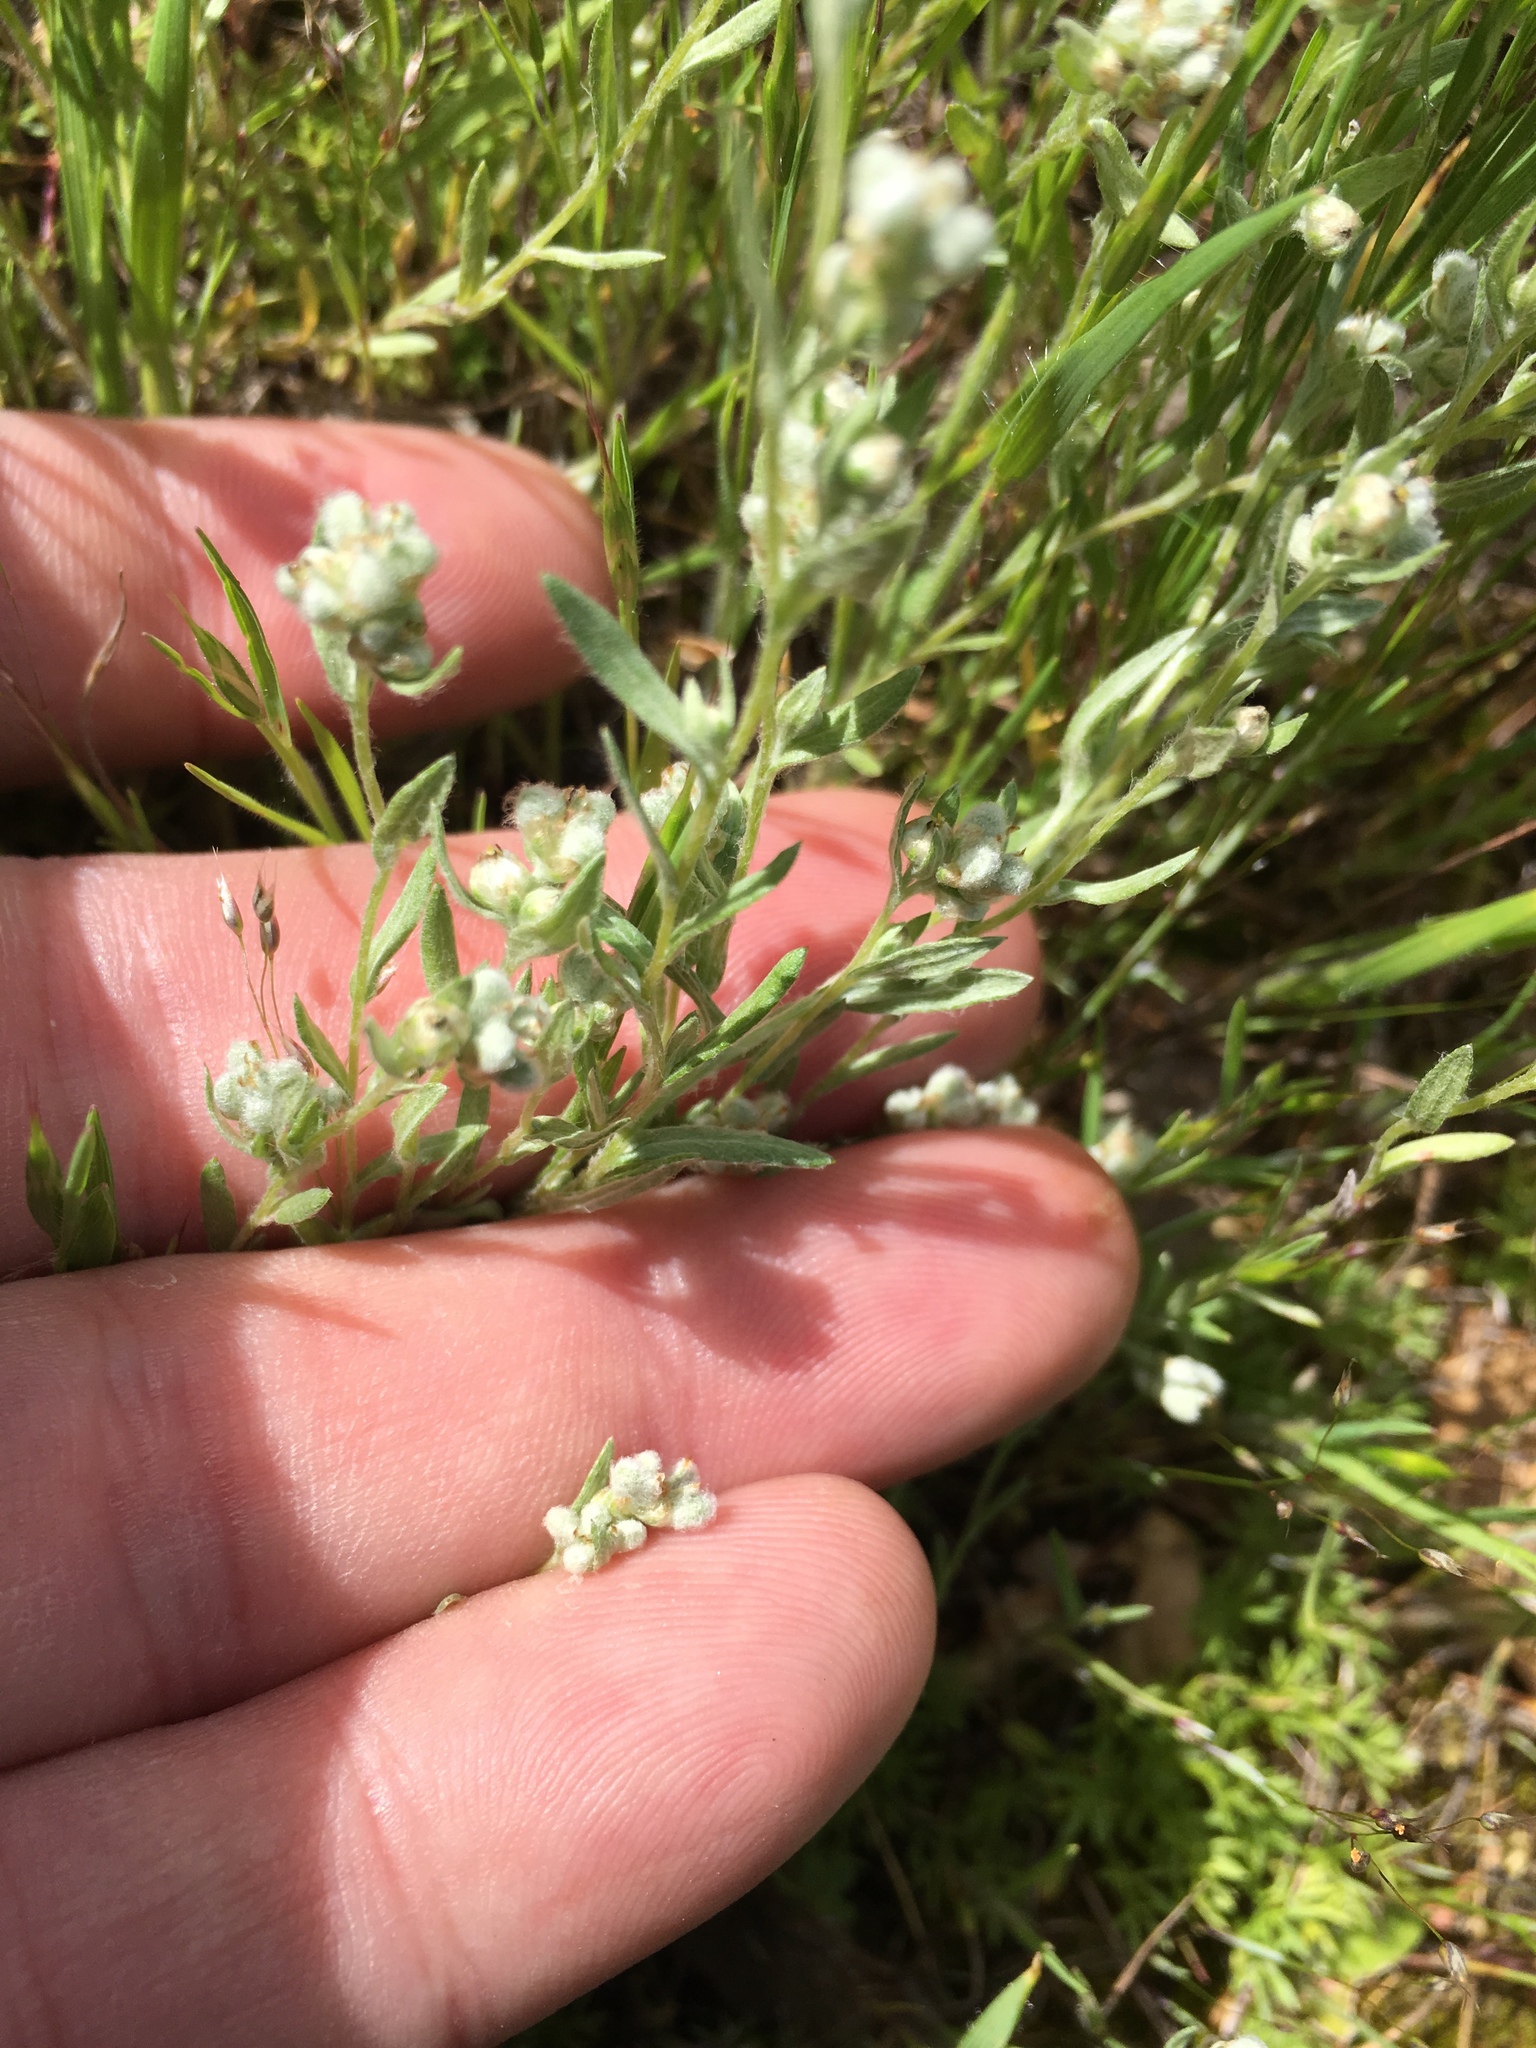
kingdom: Plantae
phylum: Tracheophyta
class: Magnoliopsida
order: Asterales
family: Asteraceae
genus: Bombycilaena
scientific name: Bombycilaena californica
